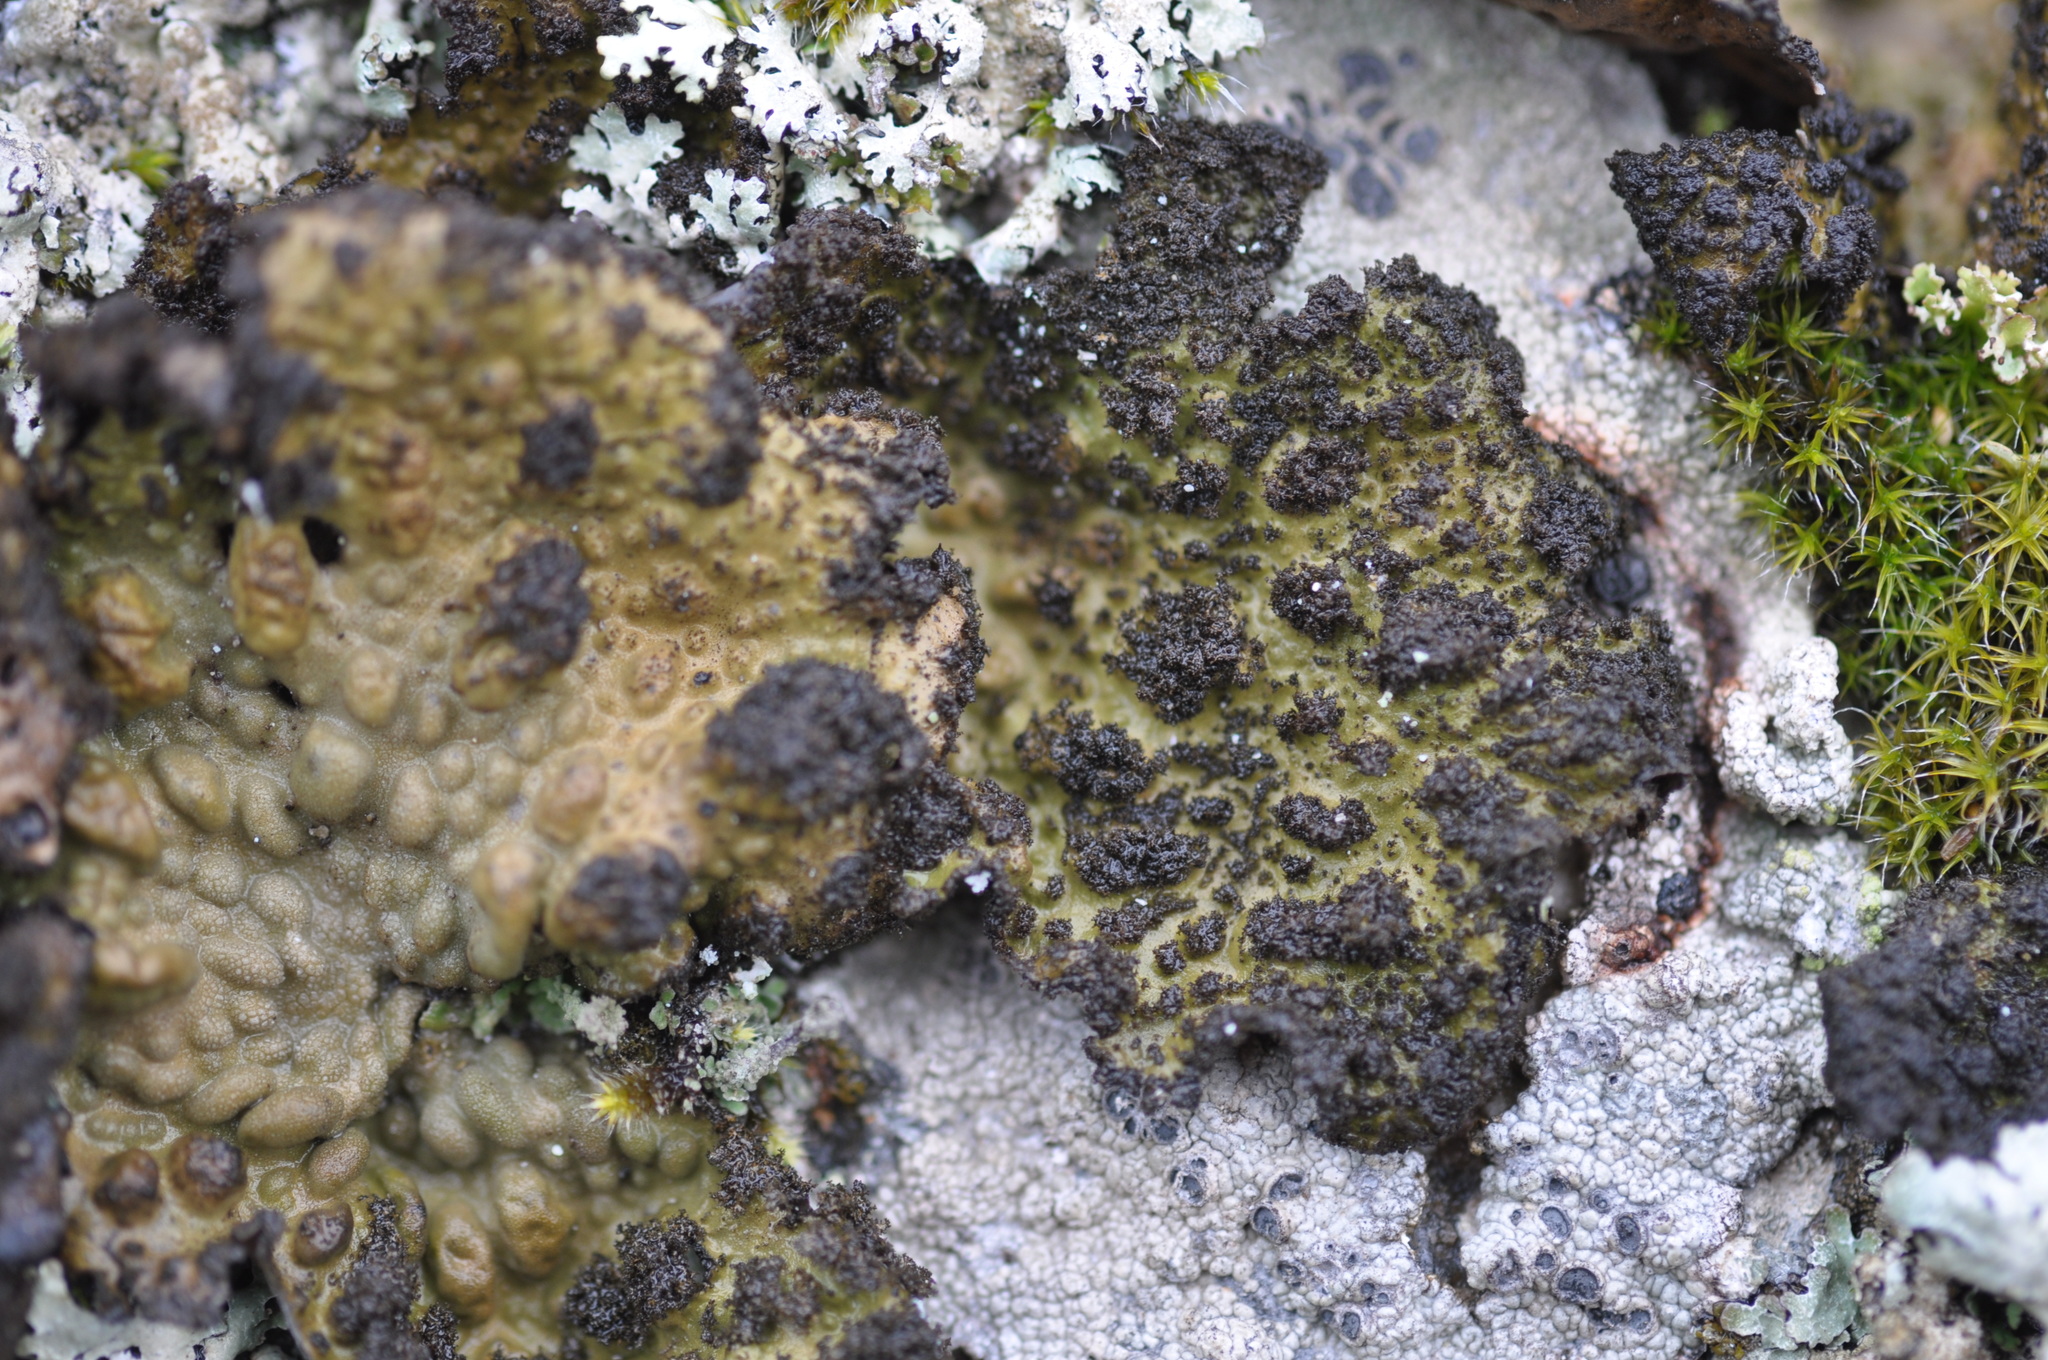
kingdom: Fungi
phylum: Ascomycota
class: Lecanoromycetes
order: Umbilicariales
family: Umbilicariaceae
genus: Lasallia
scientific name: Lasallia pustulata
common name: Blistered toadskin lichen
